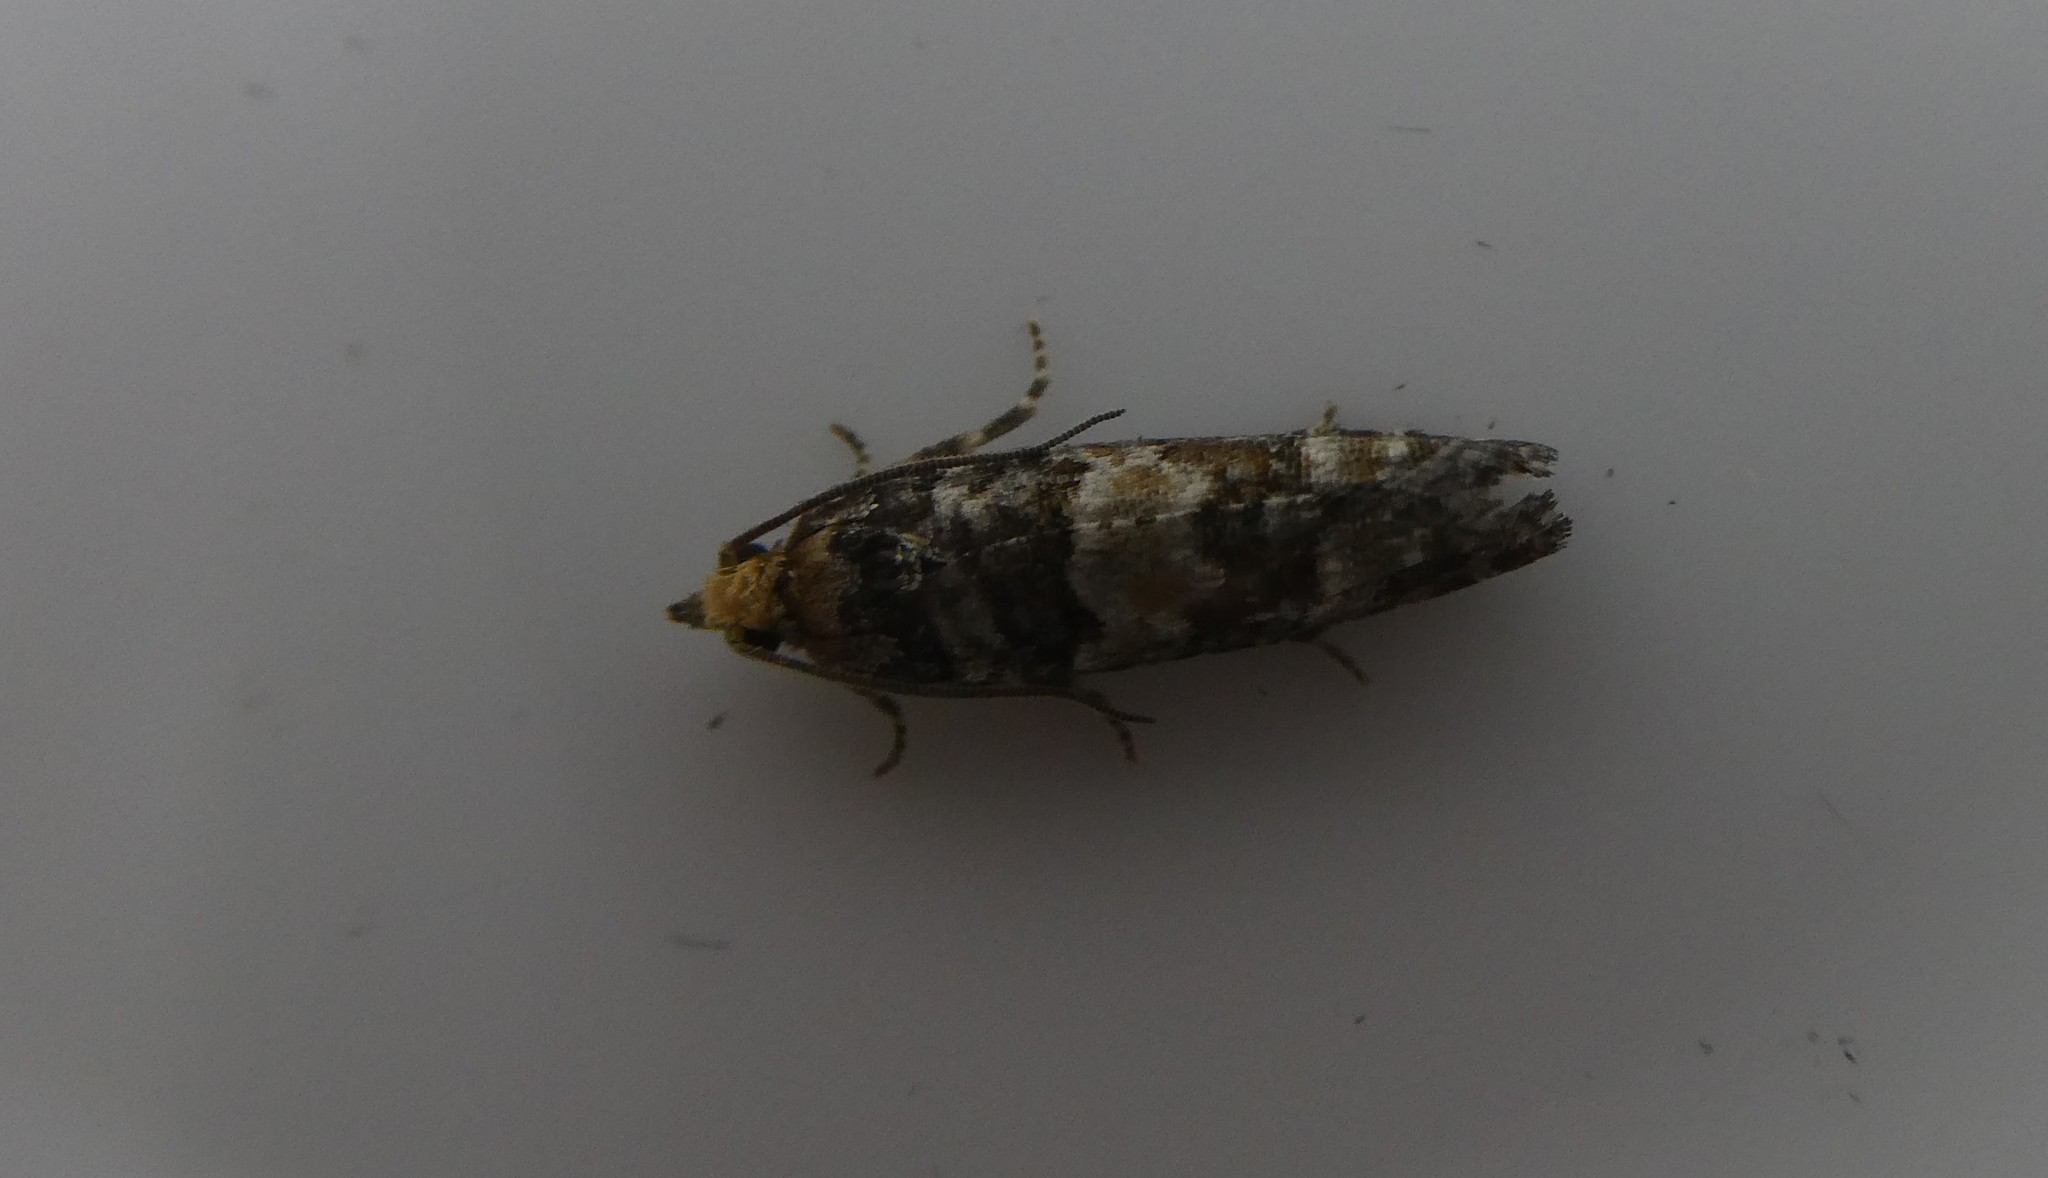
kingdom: Animalia
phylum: Arthropoda
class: Insecta
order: Lepidoptera
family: Tortricidae
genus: Eucopina
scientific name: Eucopina tocullionana
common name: White pinecone borer moth
